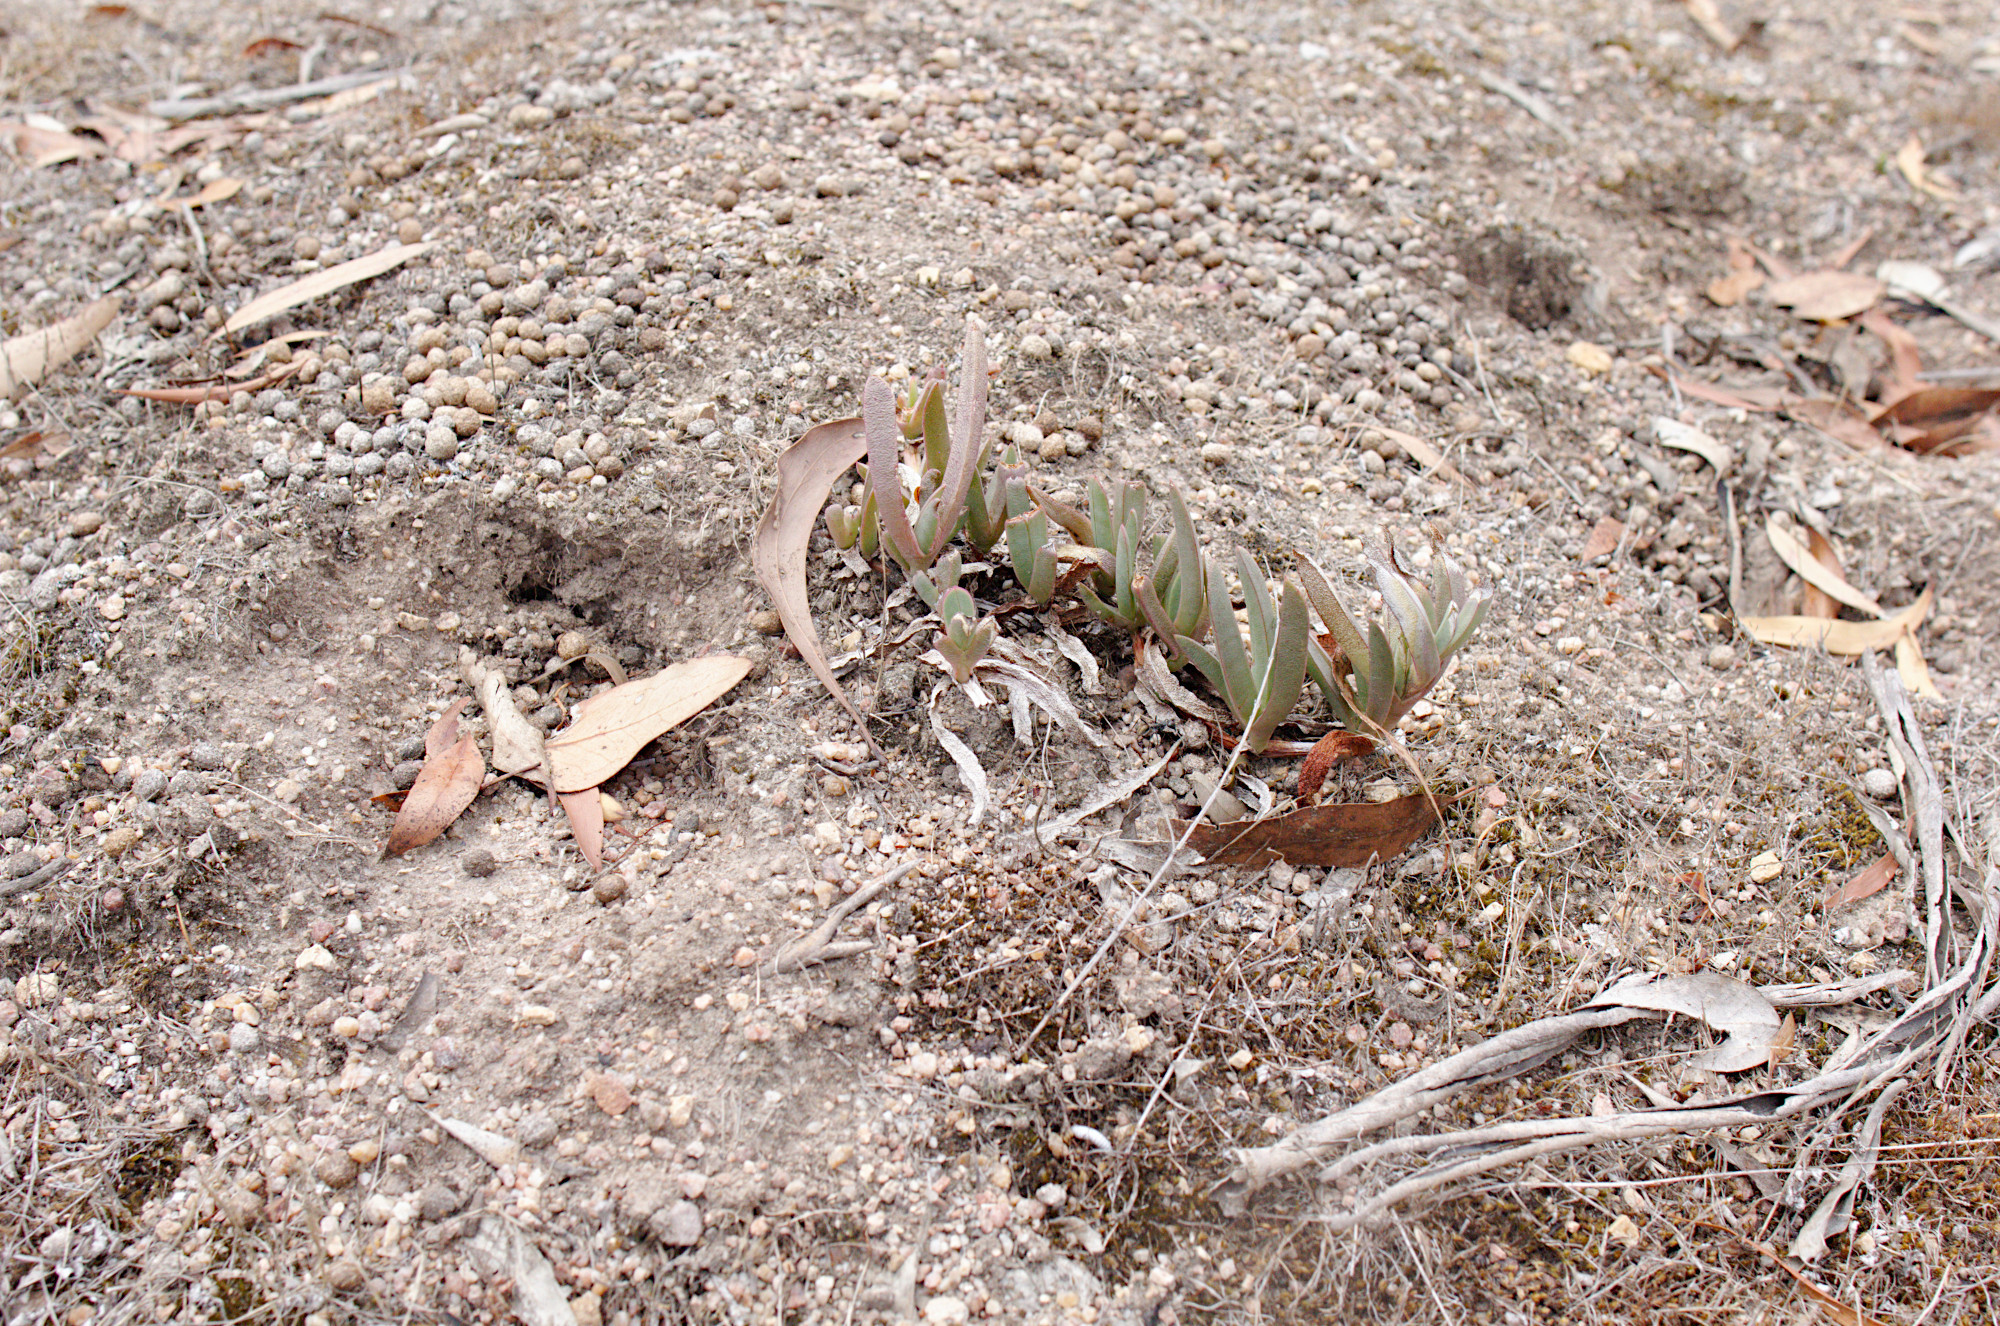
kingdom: Animalia
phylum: Arthropoda
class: Insecta
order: Hymenoptera
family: Formicidae
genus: Camponotus
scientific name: Camponotus suffusus
